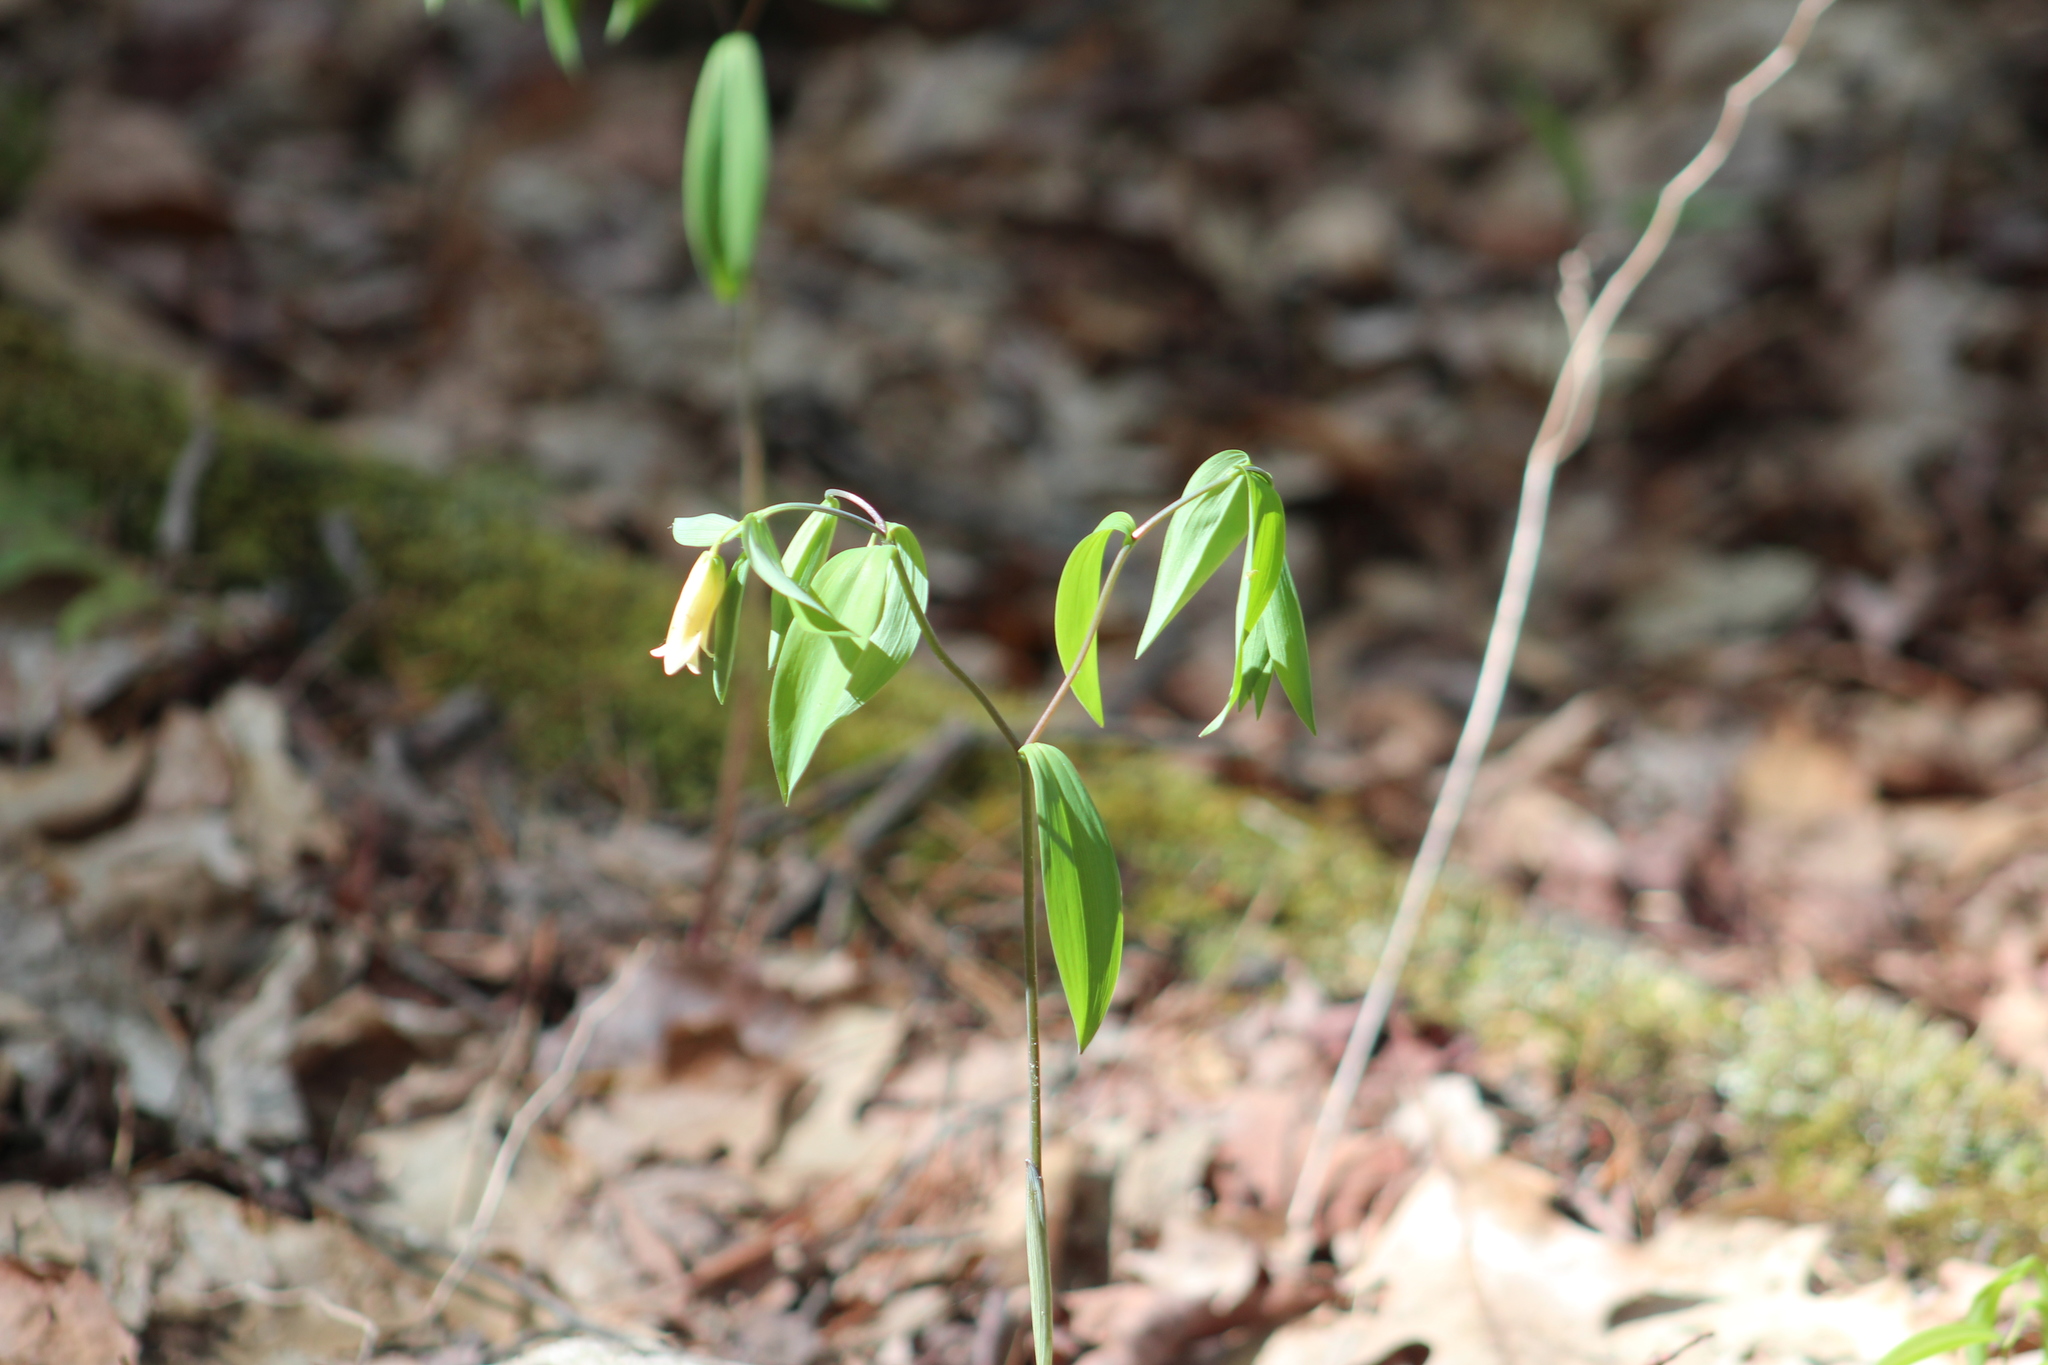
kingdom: Plantae
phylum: Tracheophyta
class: Liliopsida
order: Liliales
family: Colchicaceae
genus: Uvularia
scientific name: Uvularia sessilifolia
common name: Straw-lily
